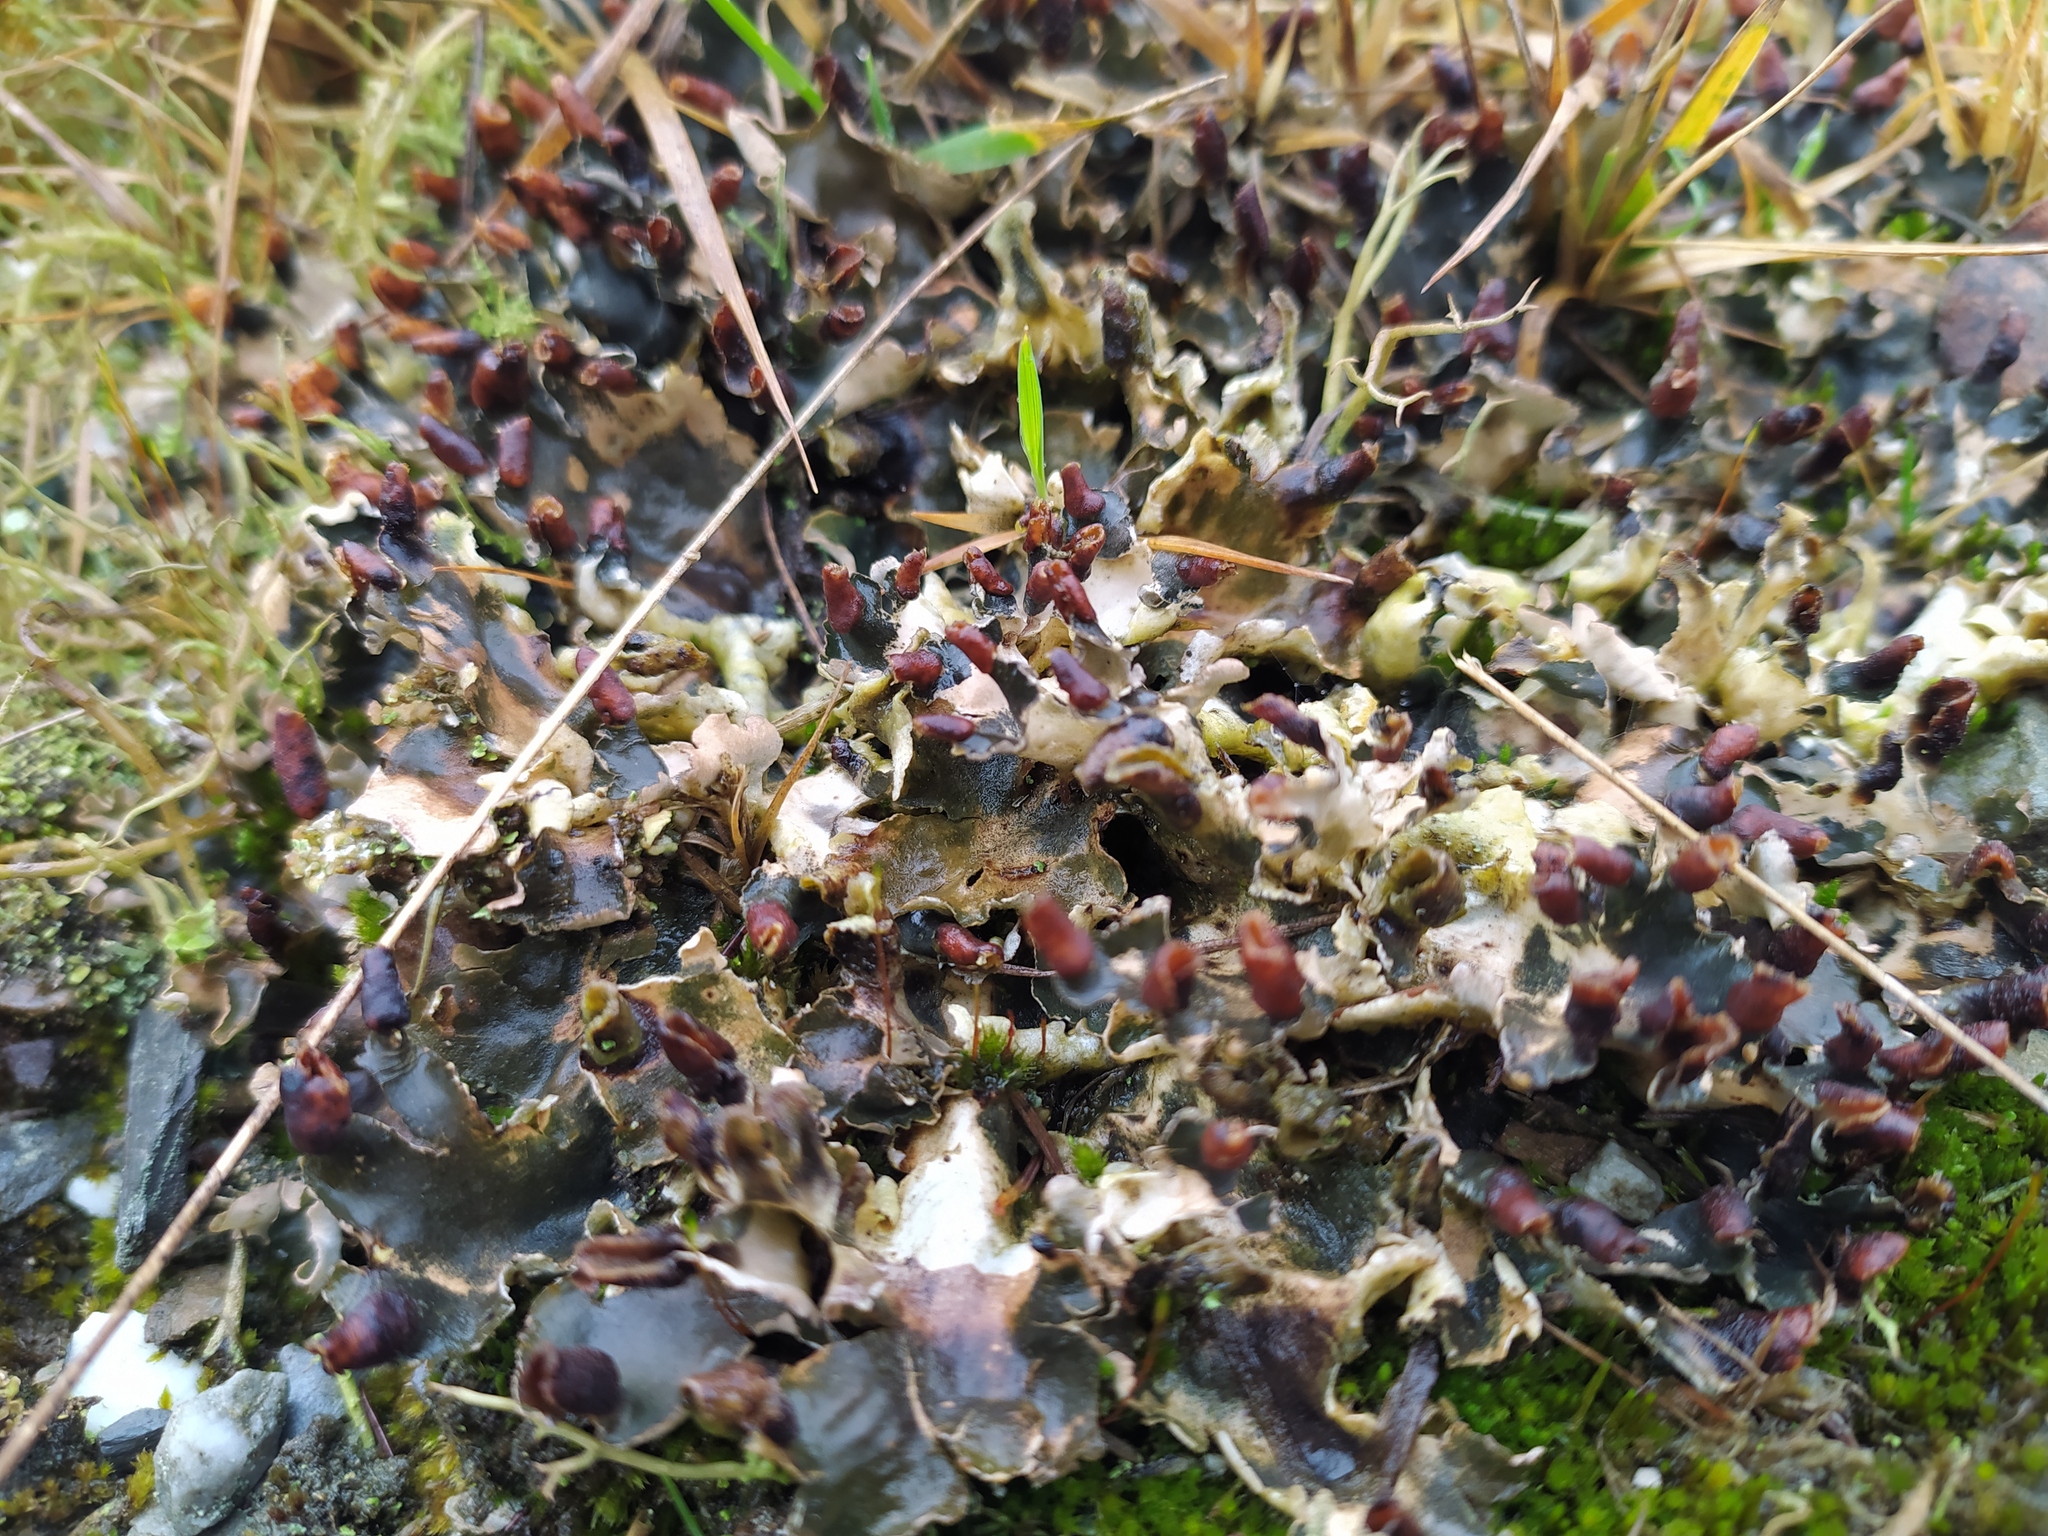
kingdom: Fungi
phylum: Ascomycota
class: Lecanoromycetes
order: Peltigerales
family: Peltigeraceae
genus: Peltigera
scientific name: Peltigera
